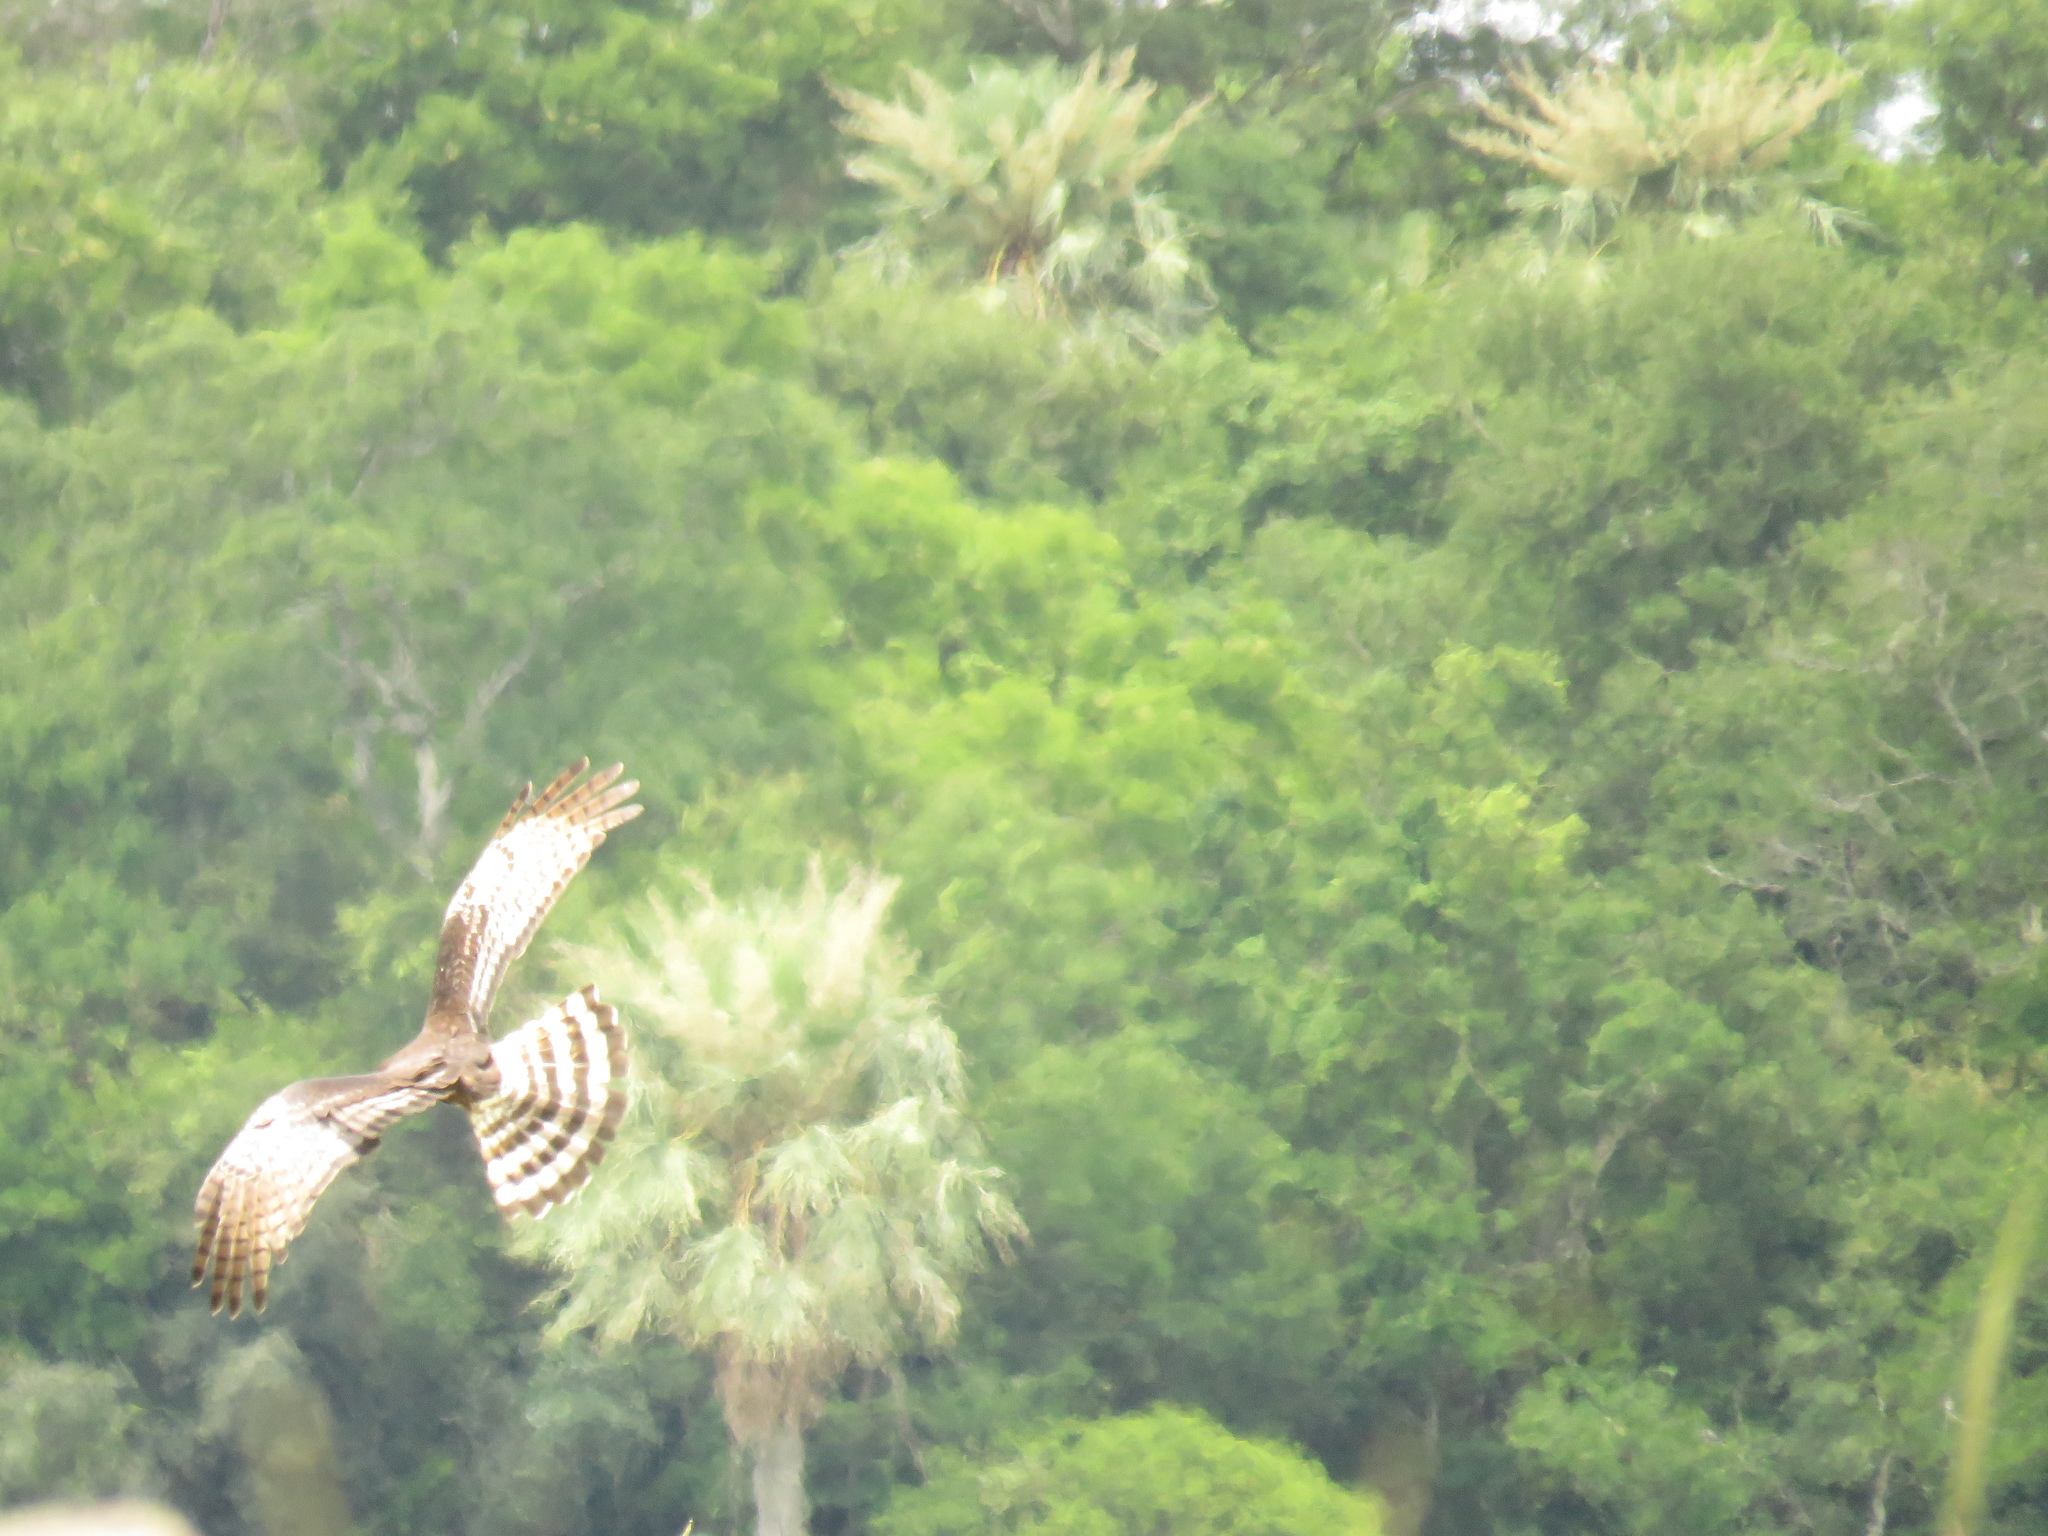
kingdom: Animalia
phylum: Chordata
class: Aves
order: Accipitriformes
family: Accipitridae
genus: Circus
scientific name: Circus buffoni
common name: Long-winged harrier
